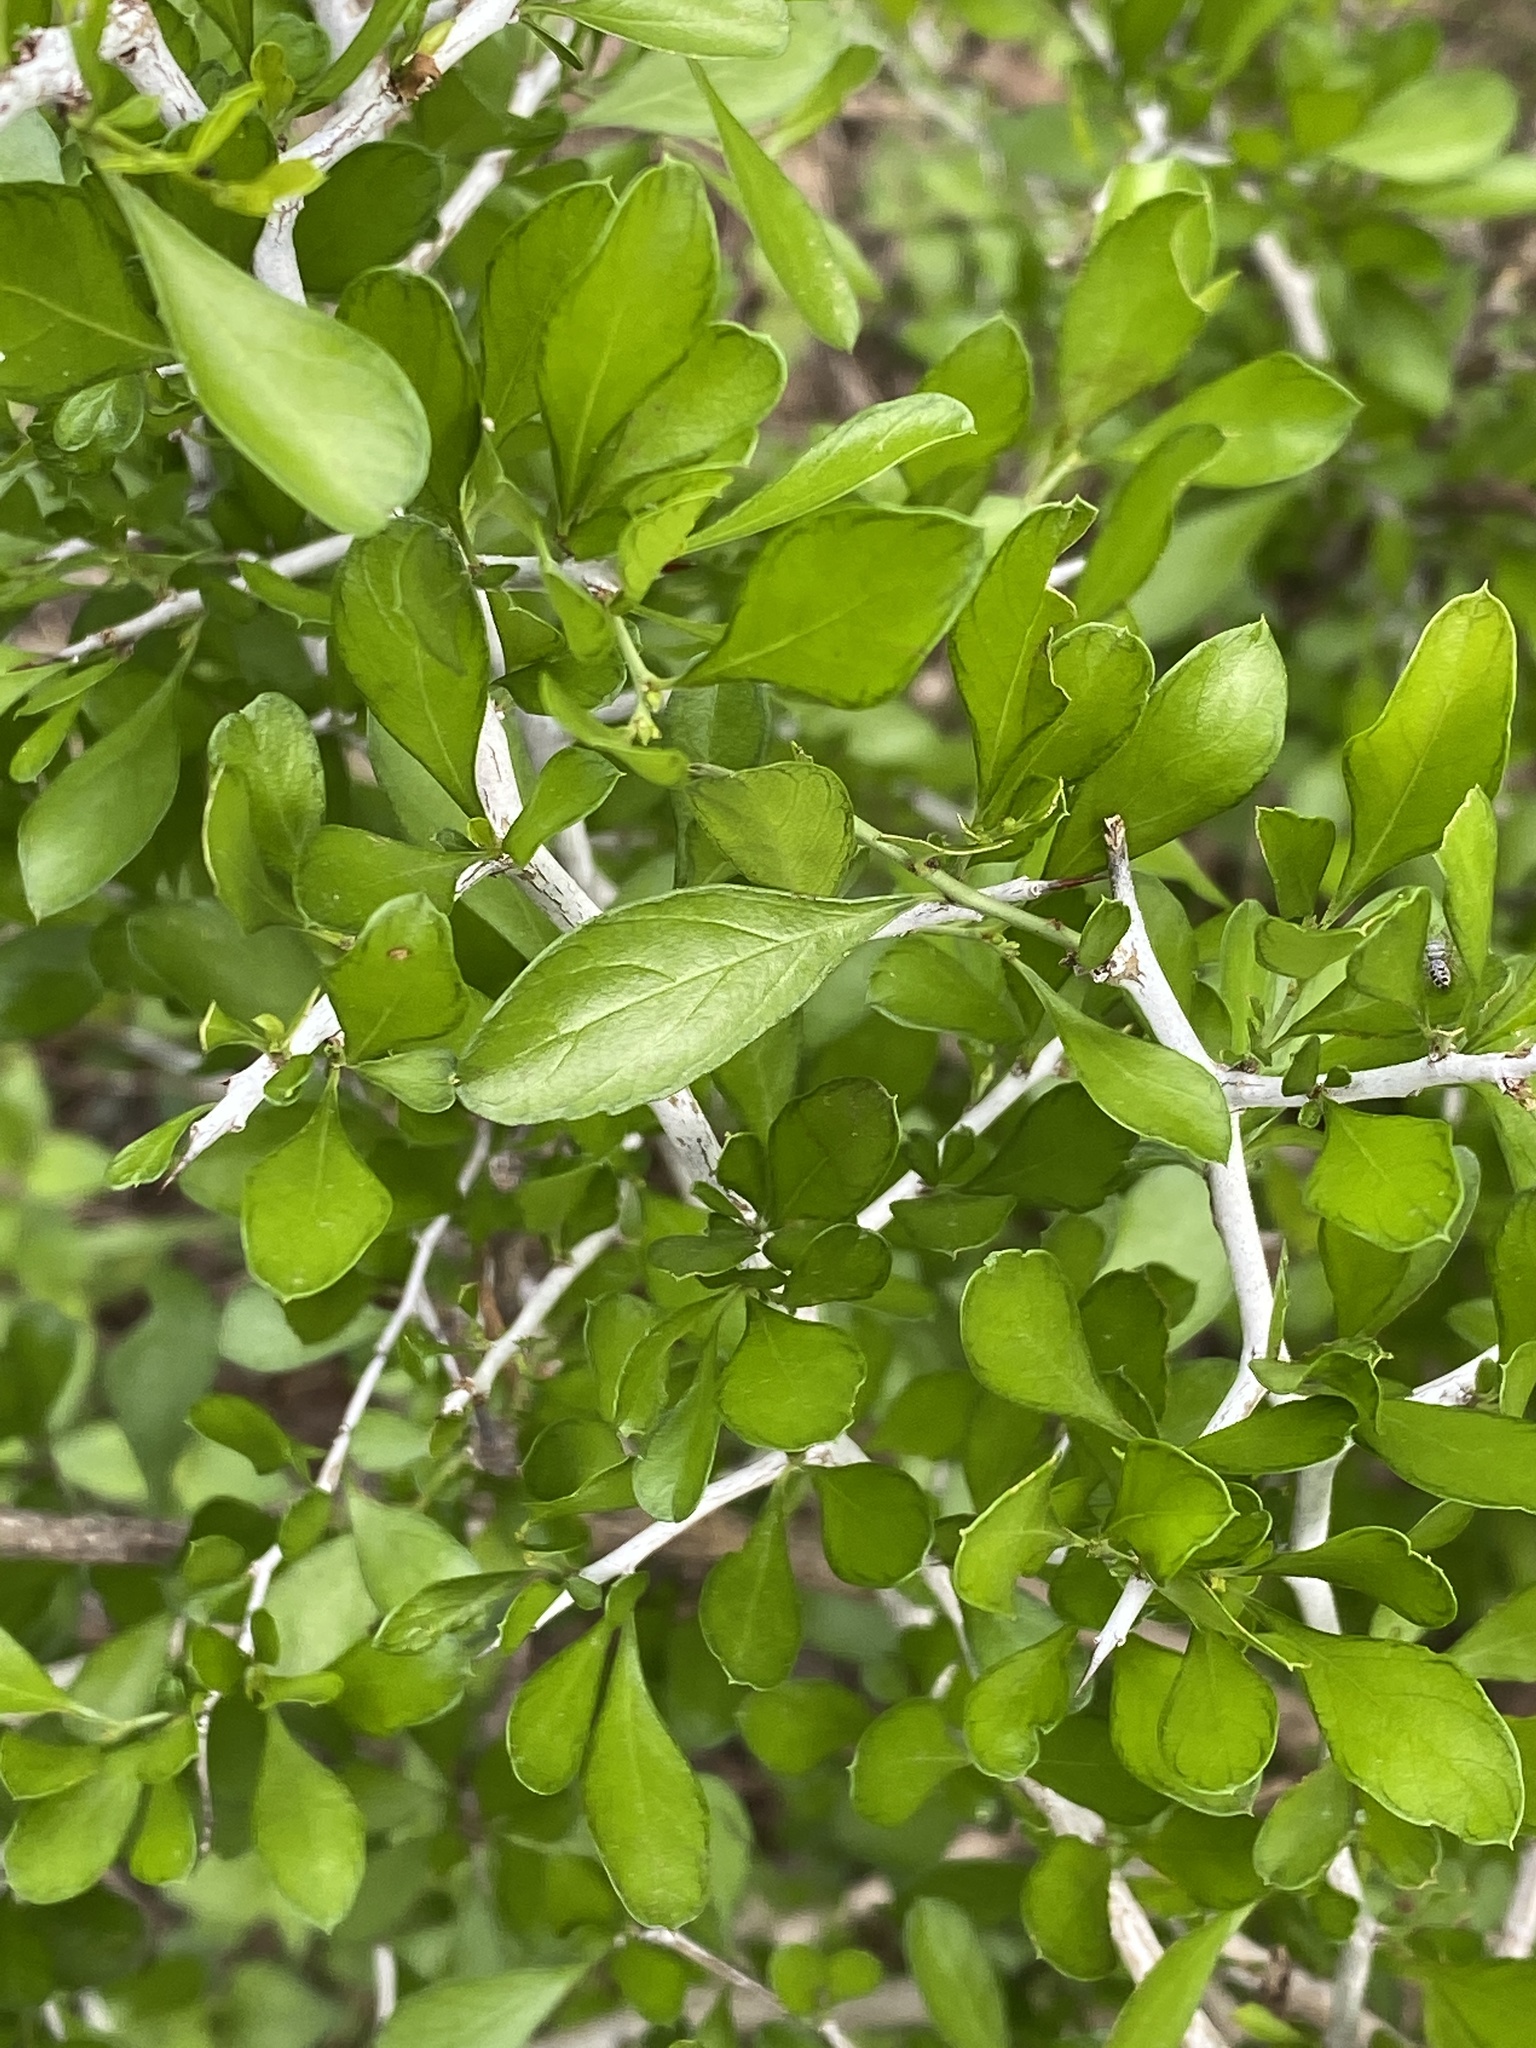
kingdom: Plantae
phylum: Tracheophyta
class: Magnoliopsida
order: Rosales
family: Rhamnaceae
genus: Condalia
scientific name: Condalia hookeri
